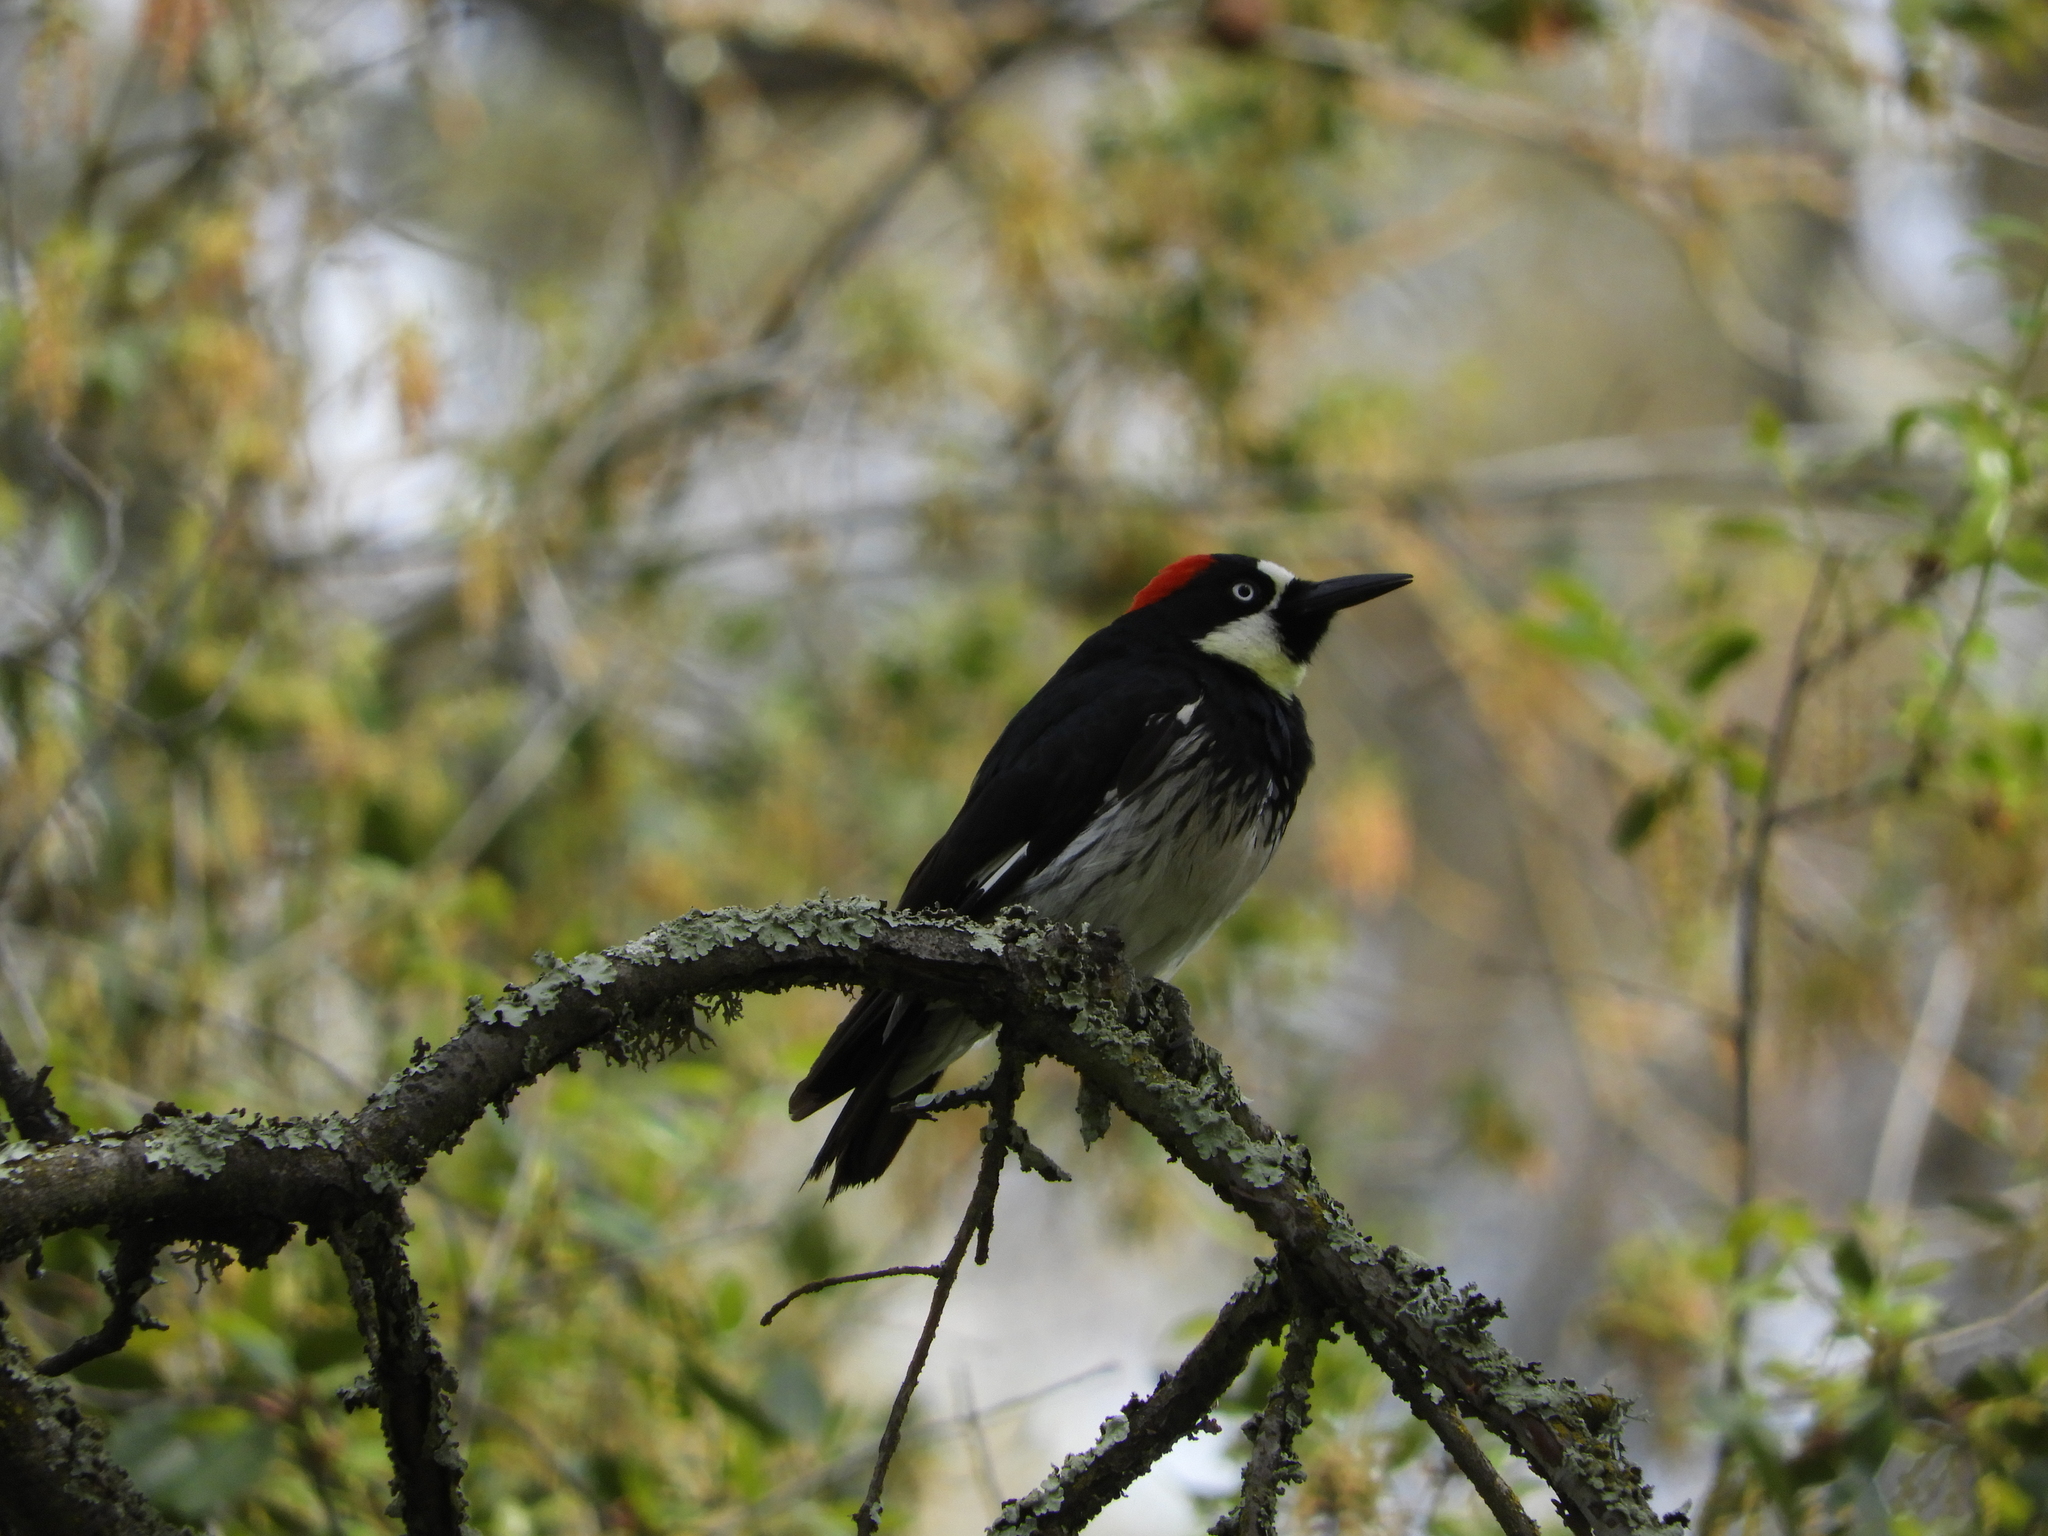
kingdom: Animalia
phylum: Chordata
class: Aves
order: Piciformes
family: Picidae
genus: Melanerpes
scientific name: Melanerpes formicivorus
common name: Acorn woodpecker
